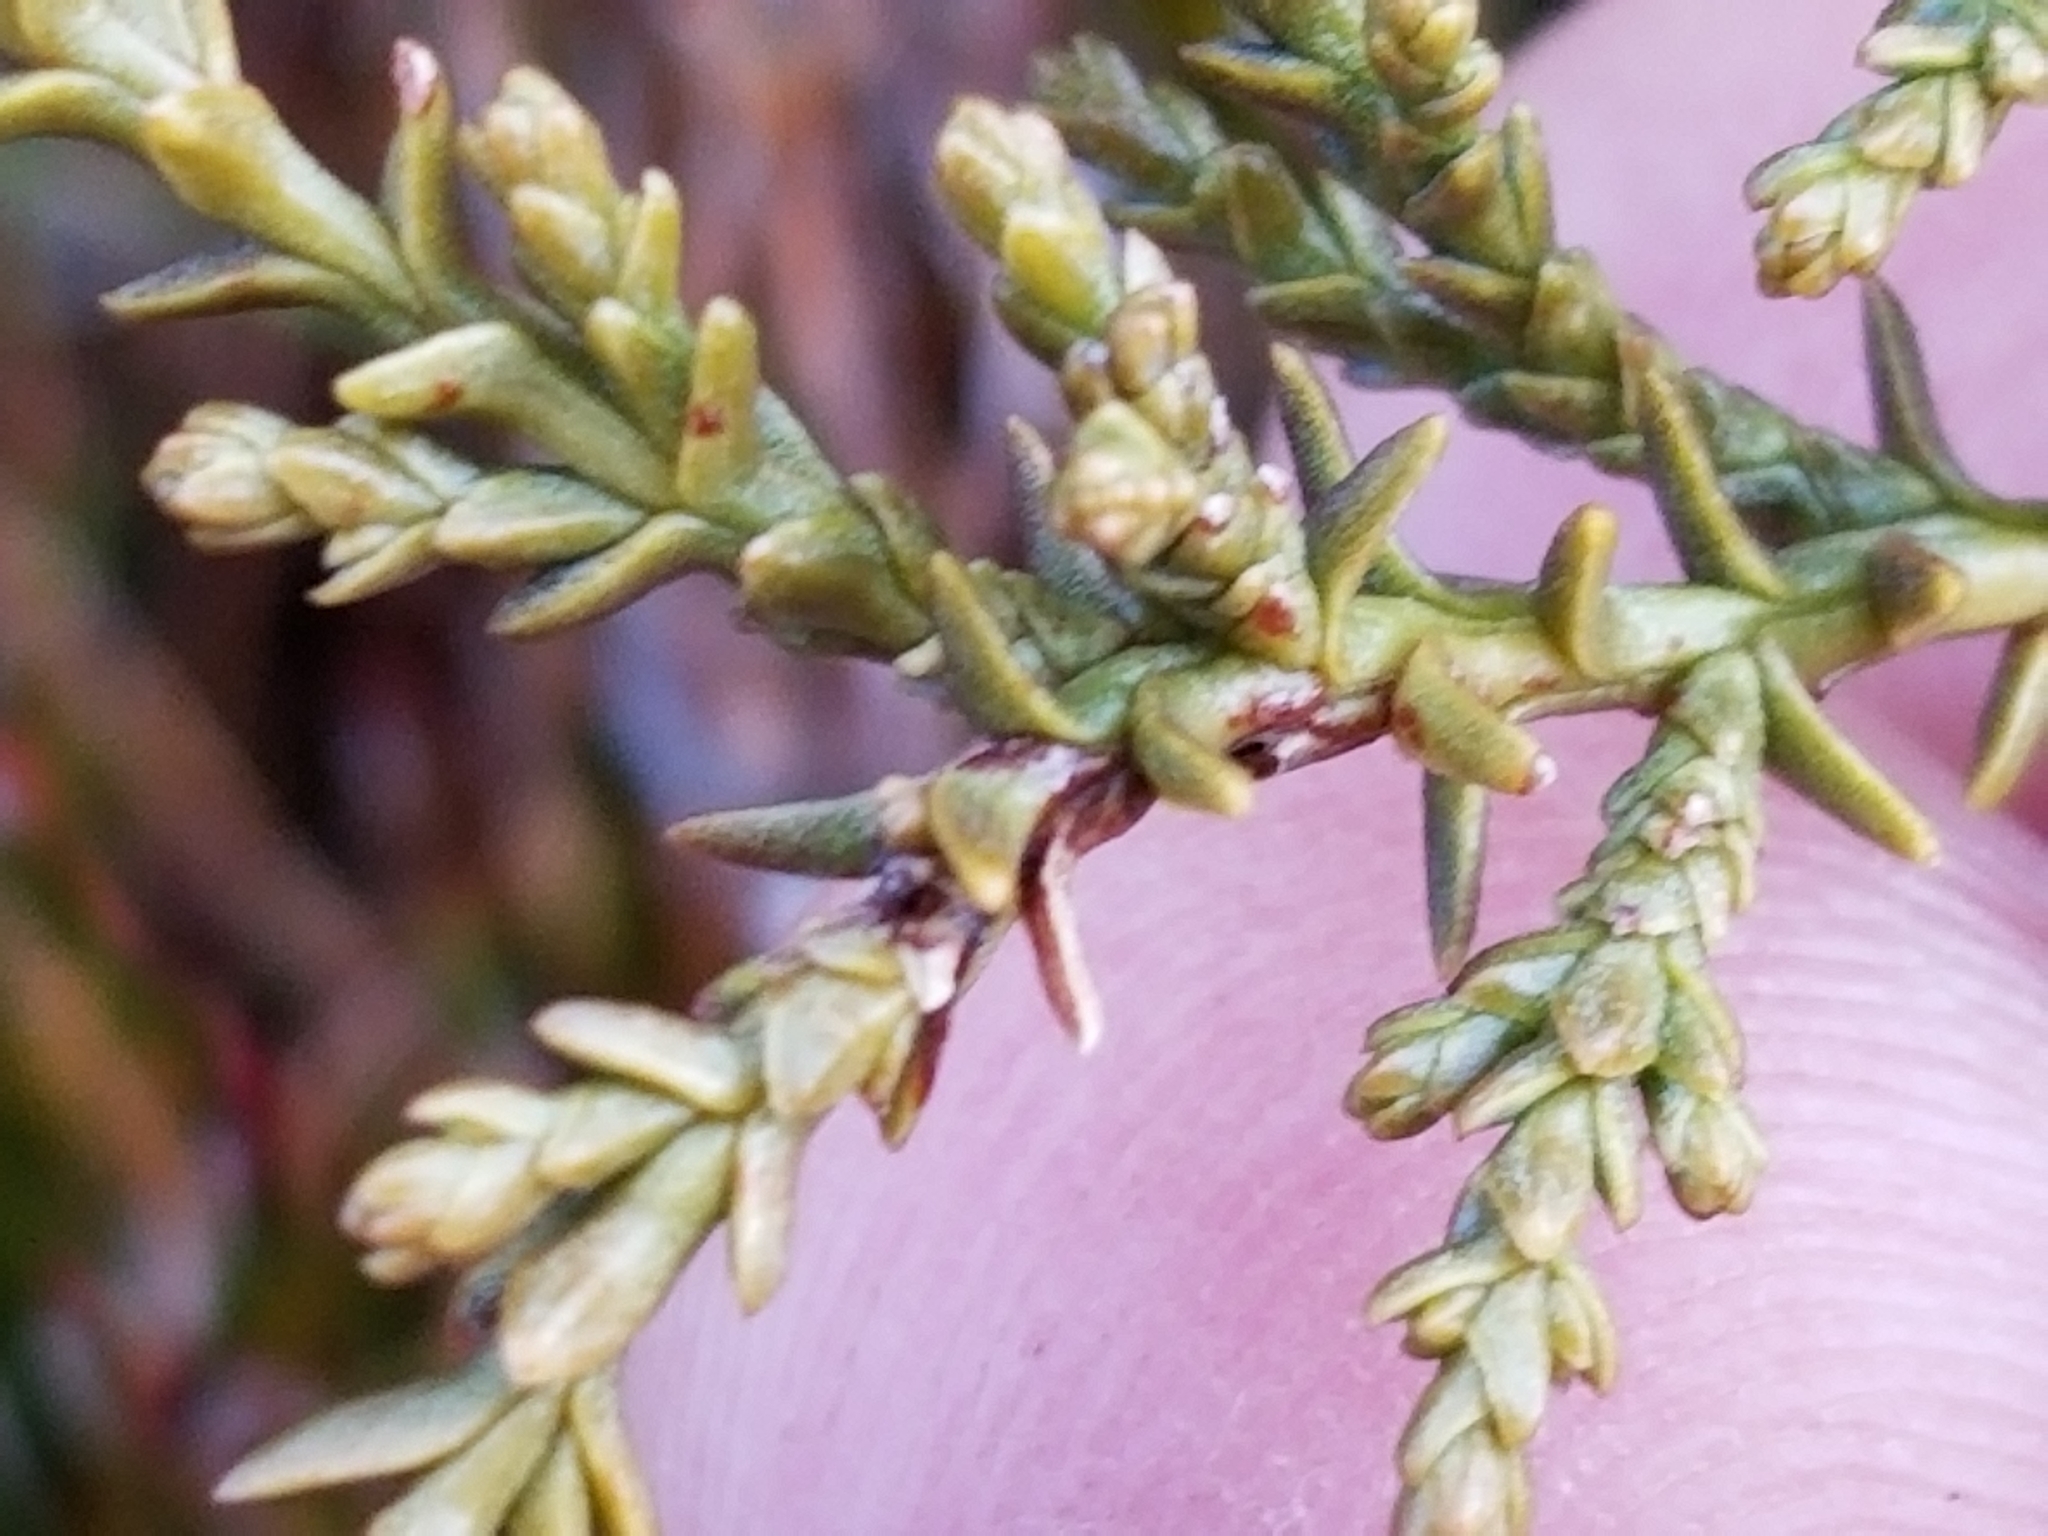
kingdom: Plantae
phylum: Tracheophyta
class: Pinopsida
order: Pinales
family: Podocarpaceae
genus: Lepidothamnus
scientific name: Lepidothamnus laxifolius
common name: Pygmy pine
